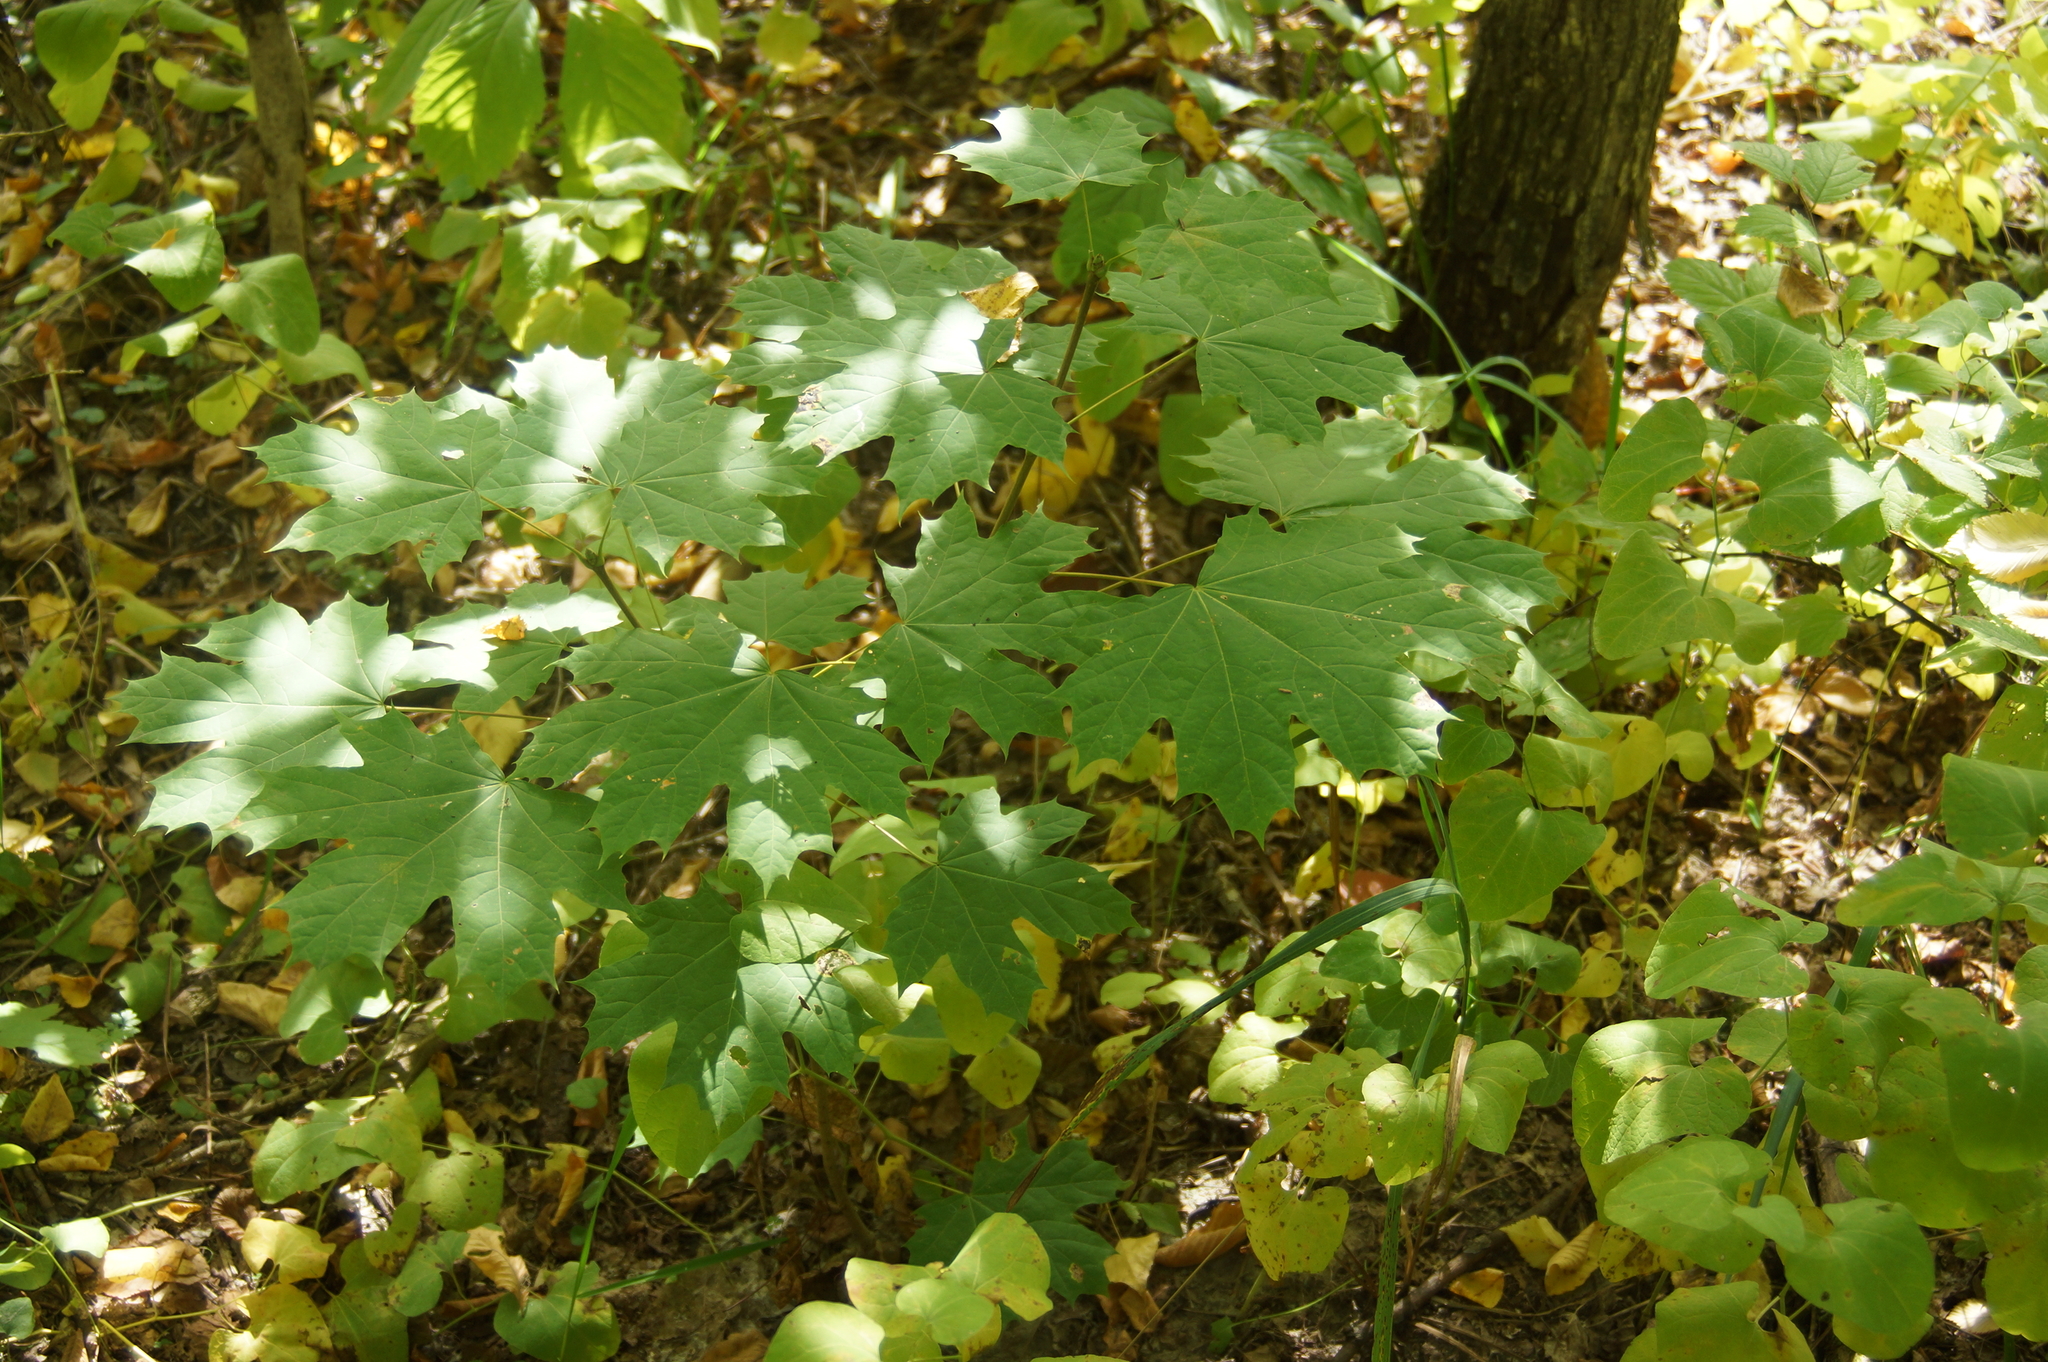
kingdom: Plantae
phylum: Tracheophyta
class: Magnoliopsida
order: Sapindales
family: Sapindaceae
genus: Acer
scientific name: Acer platanoides
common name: Norway maple
